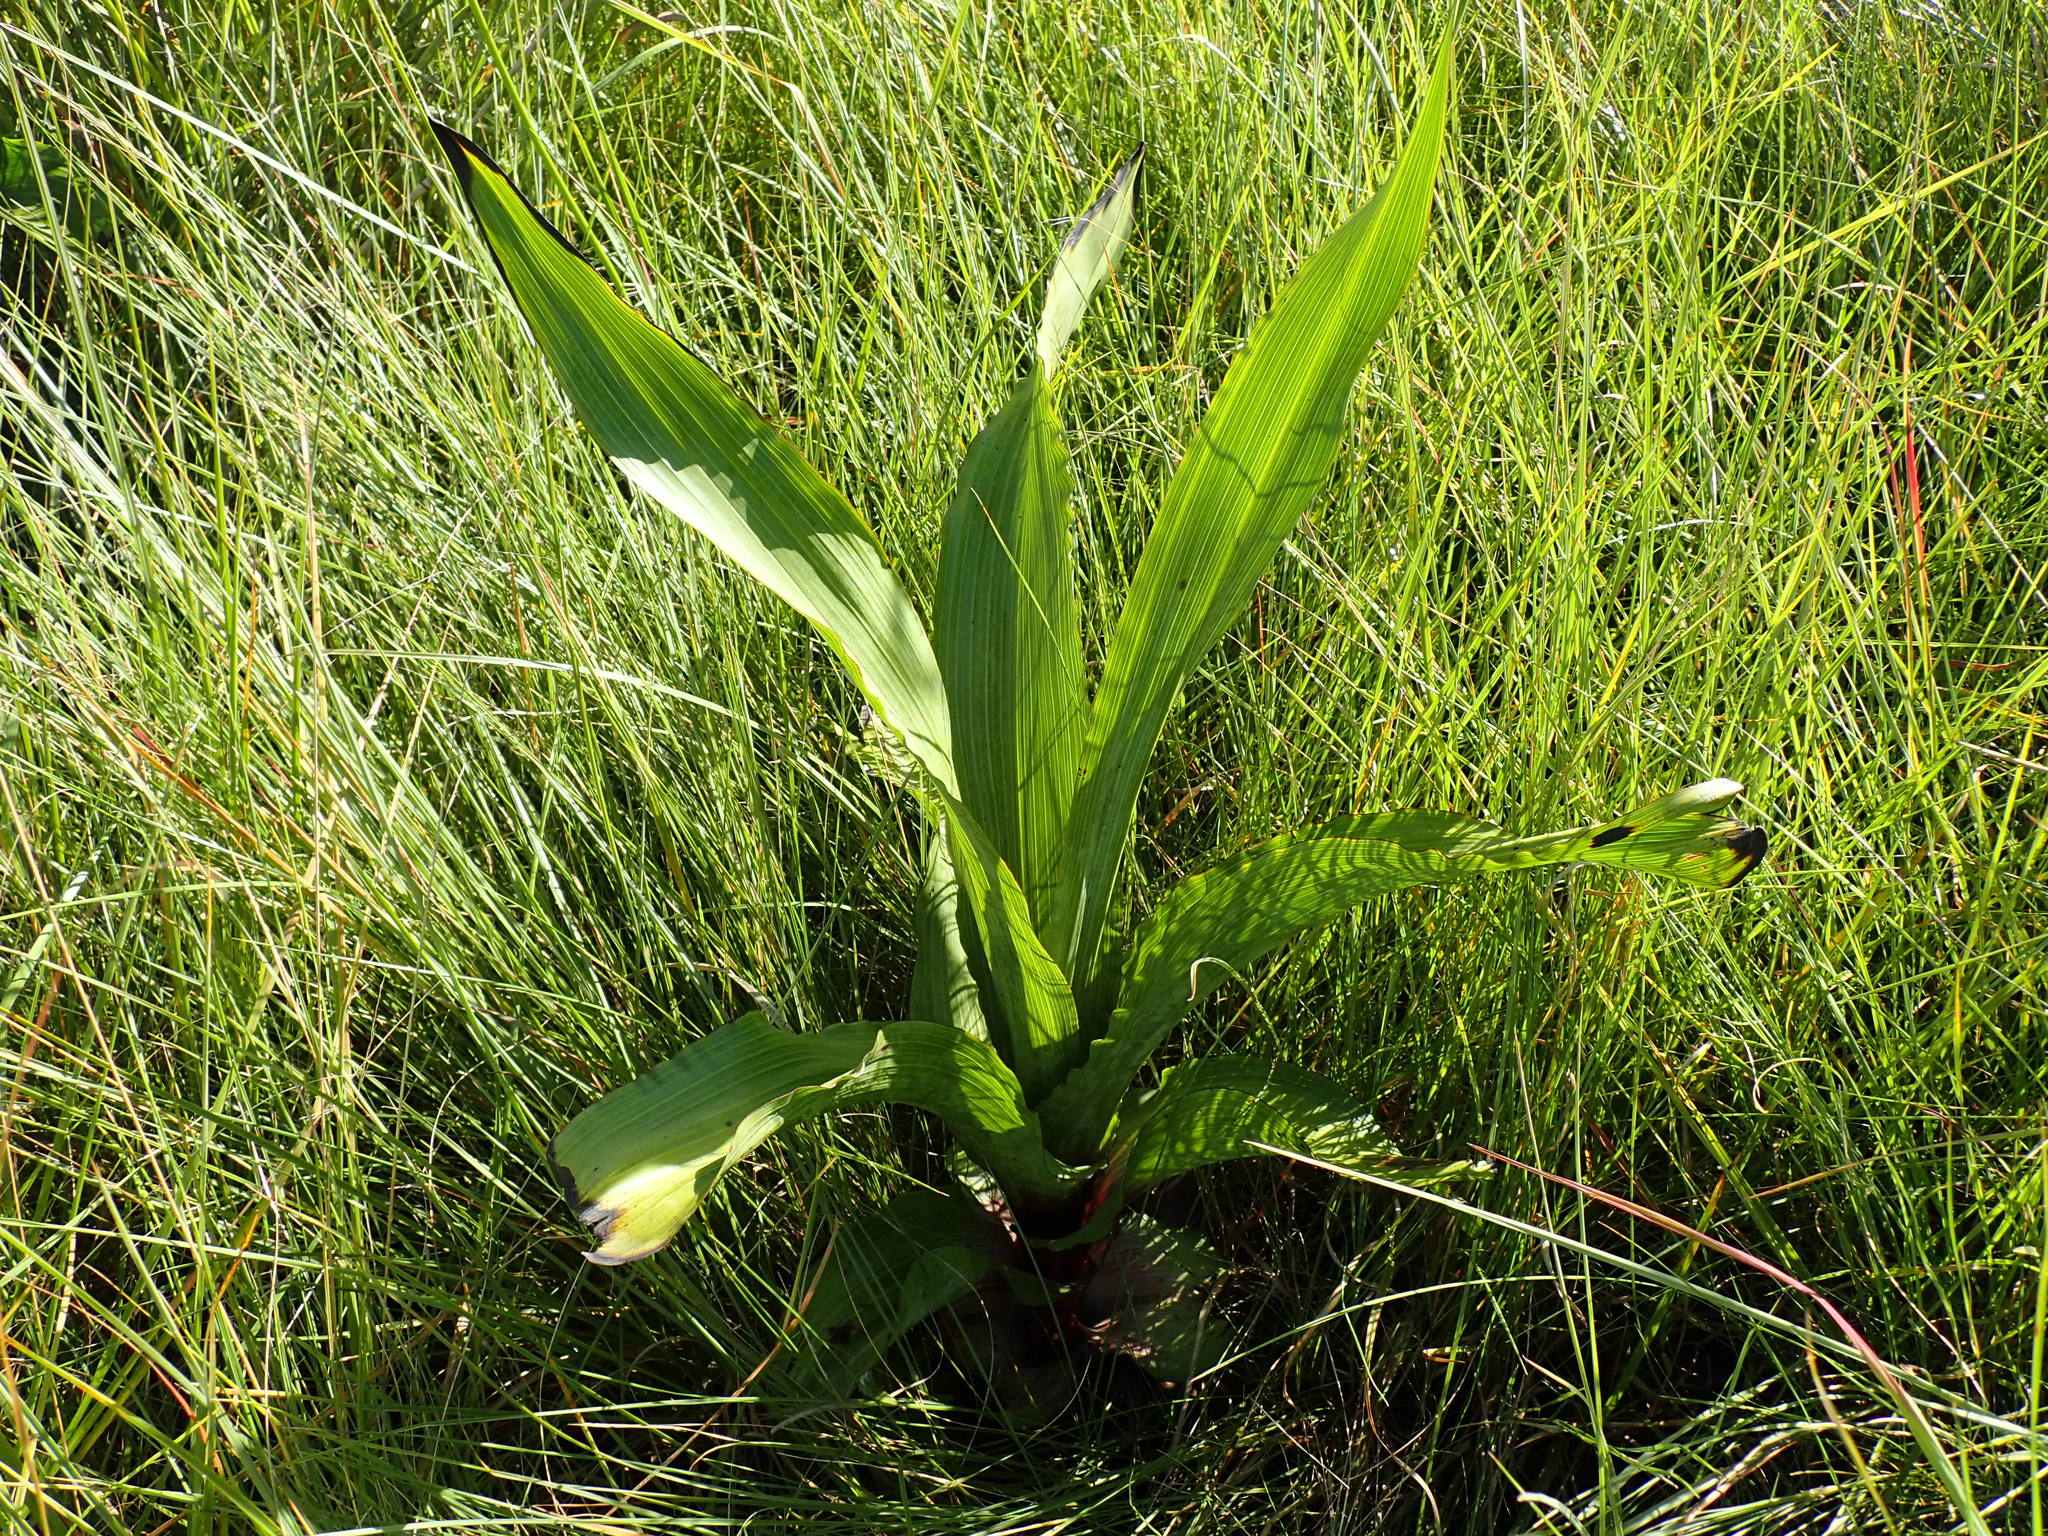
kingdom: Plantae
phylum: Tracheophyta
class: Liliopsida
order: Asparagales
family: Hypoxidaceae
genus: Hypoxis
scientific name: Hypoxis colchicifolia
